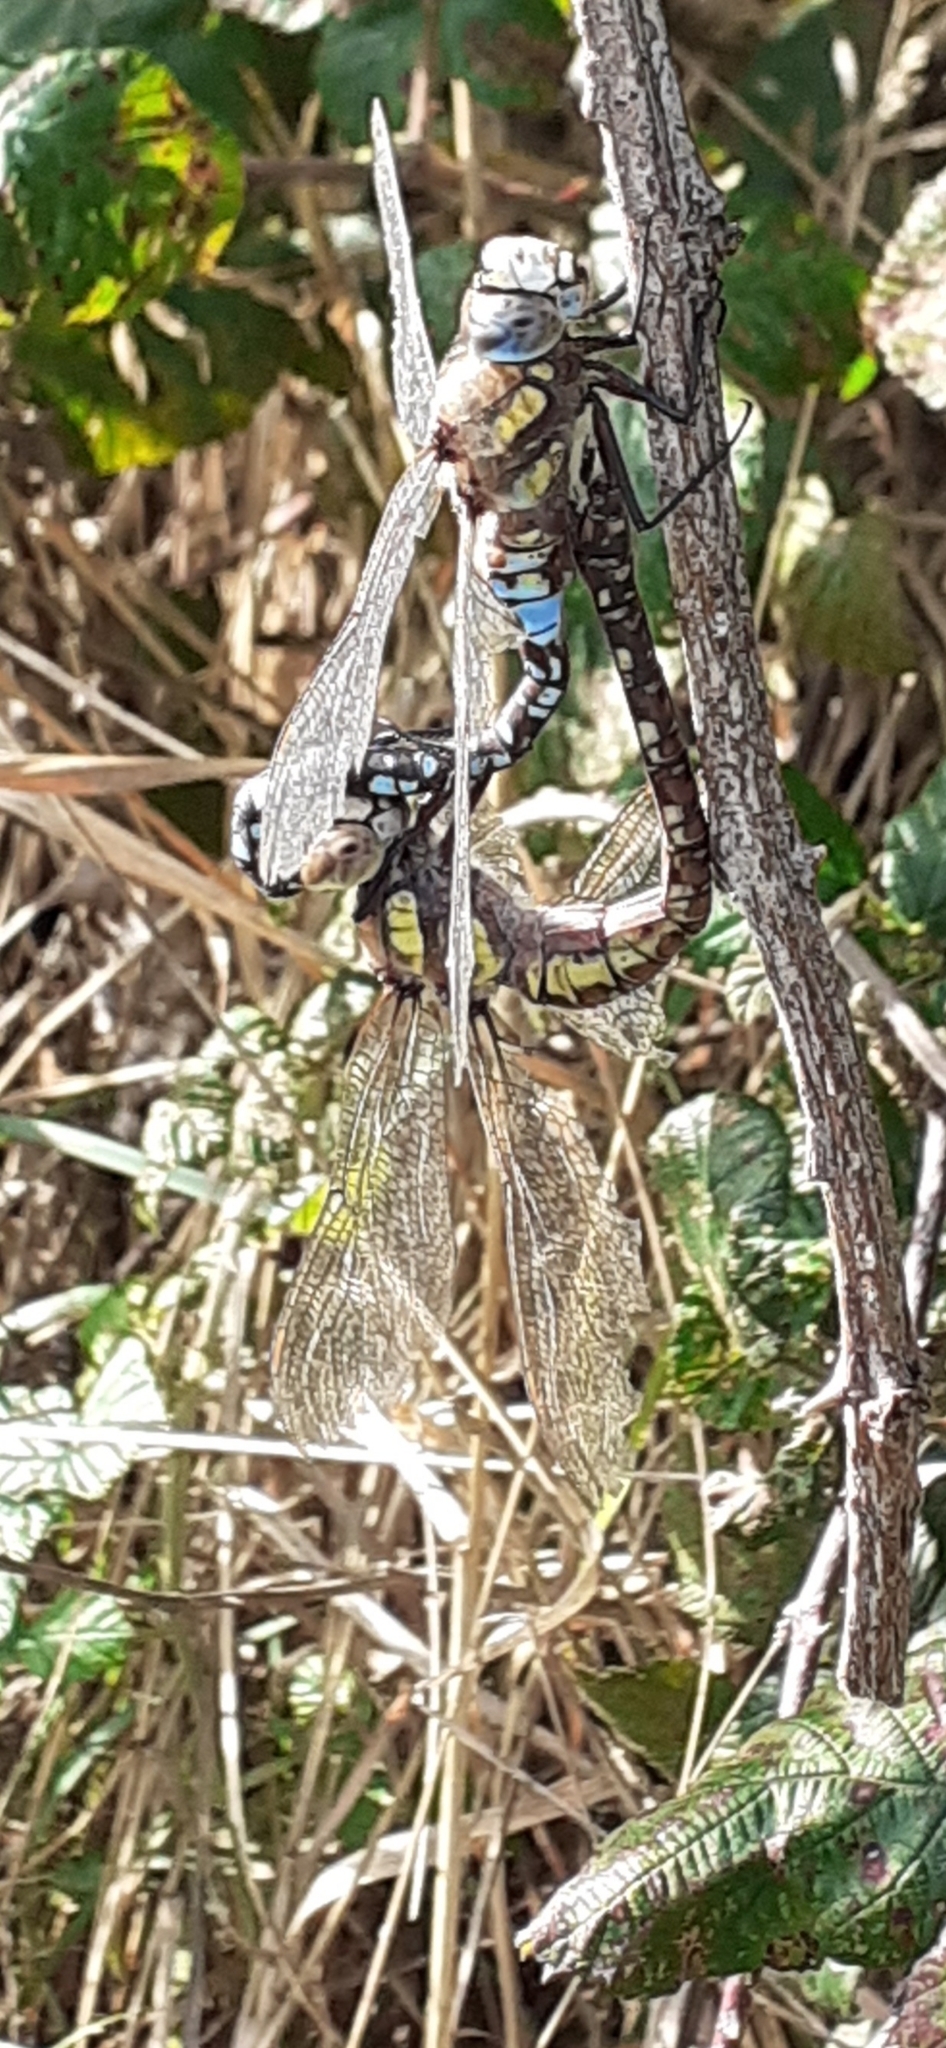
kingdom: Animalia
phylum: Arthropoda
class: Insecta
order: Odonata
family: Aeshnidae
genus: Aeshna
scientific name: Aeshna mixta
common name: Migrant hawker
